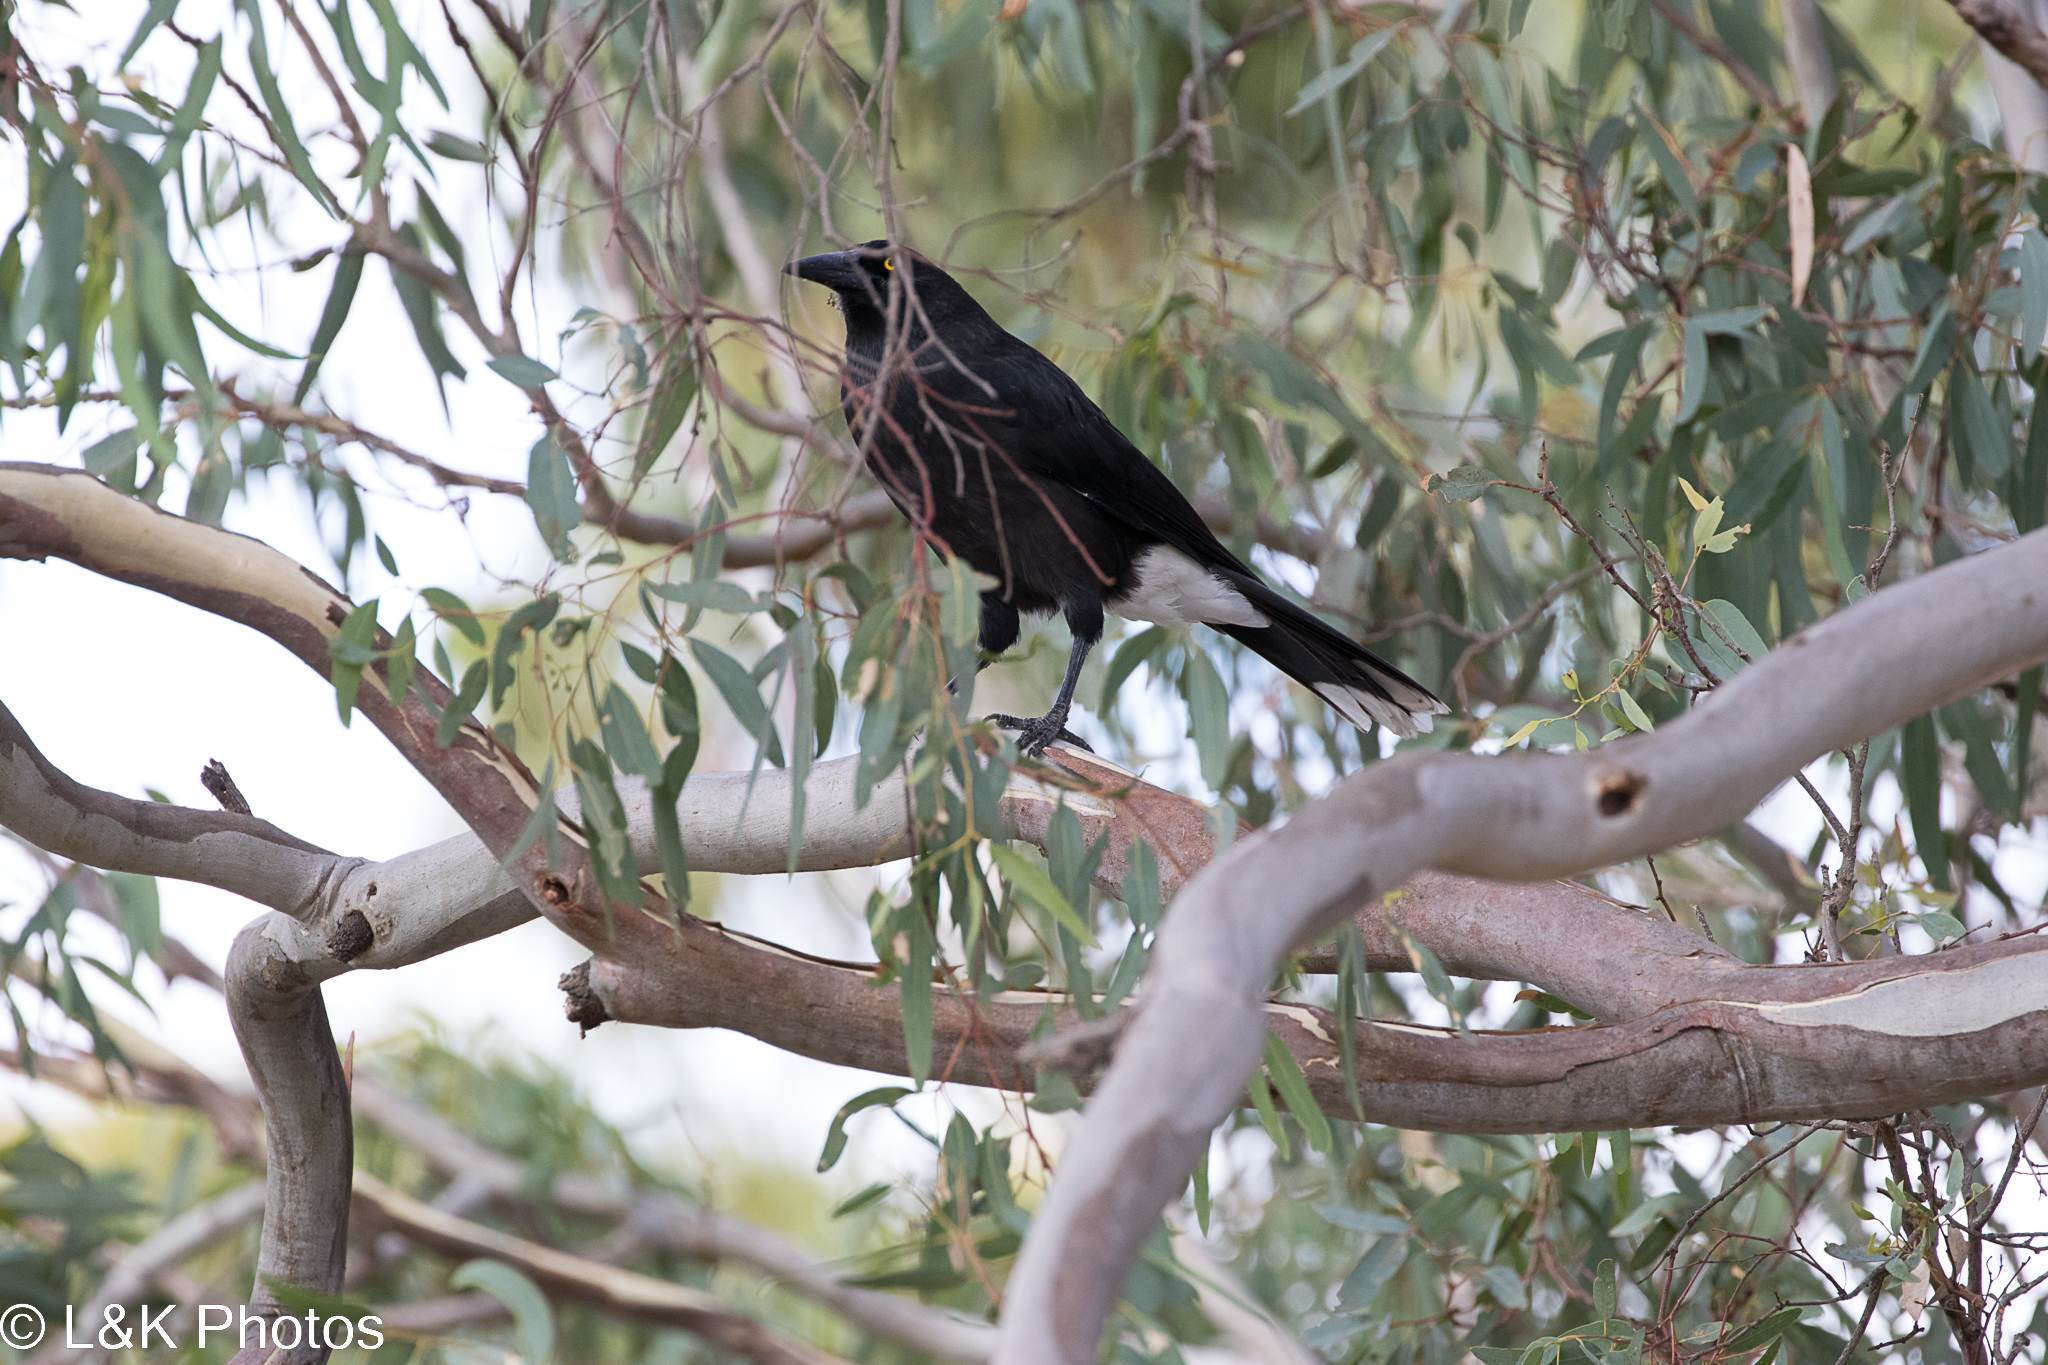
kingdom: Animalia
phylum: Chordata
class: Aves
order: Passeriformes
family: Cracticidae
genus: Strepera
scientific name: Strepera versicolor
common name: Grey currawong
